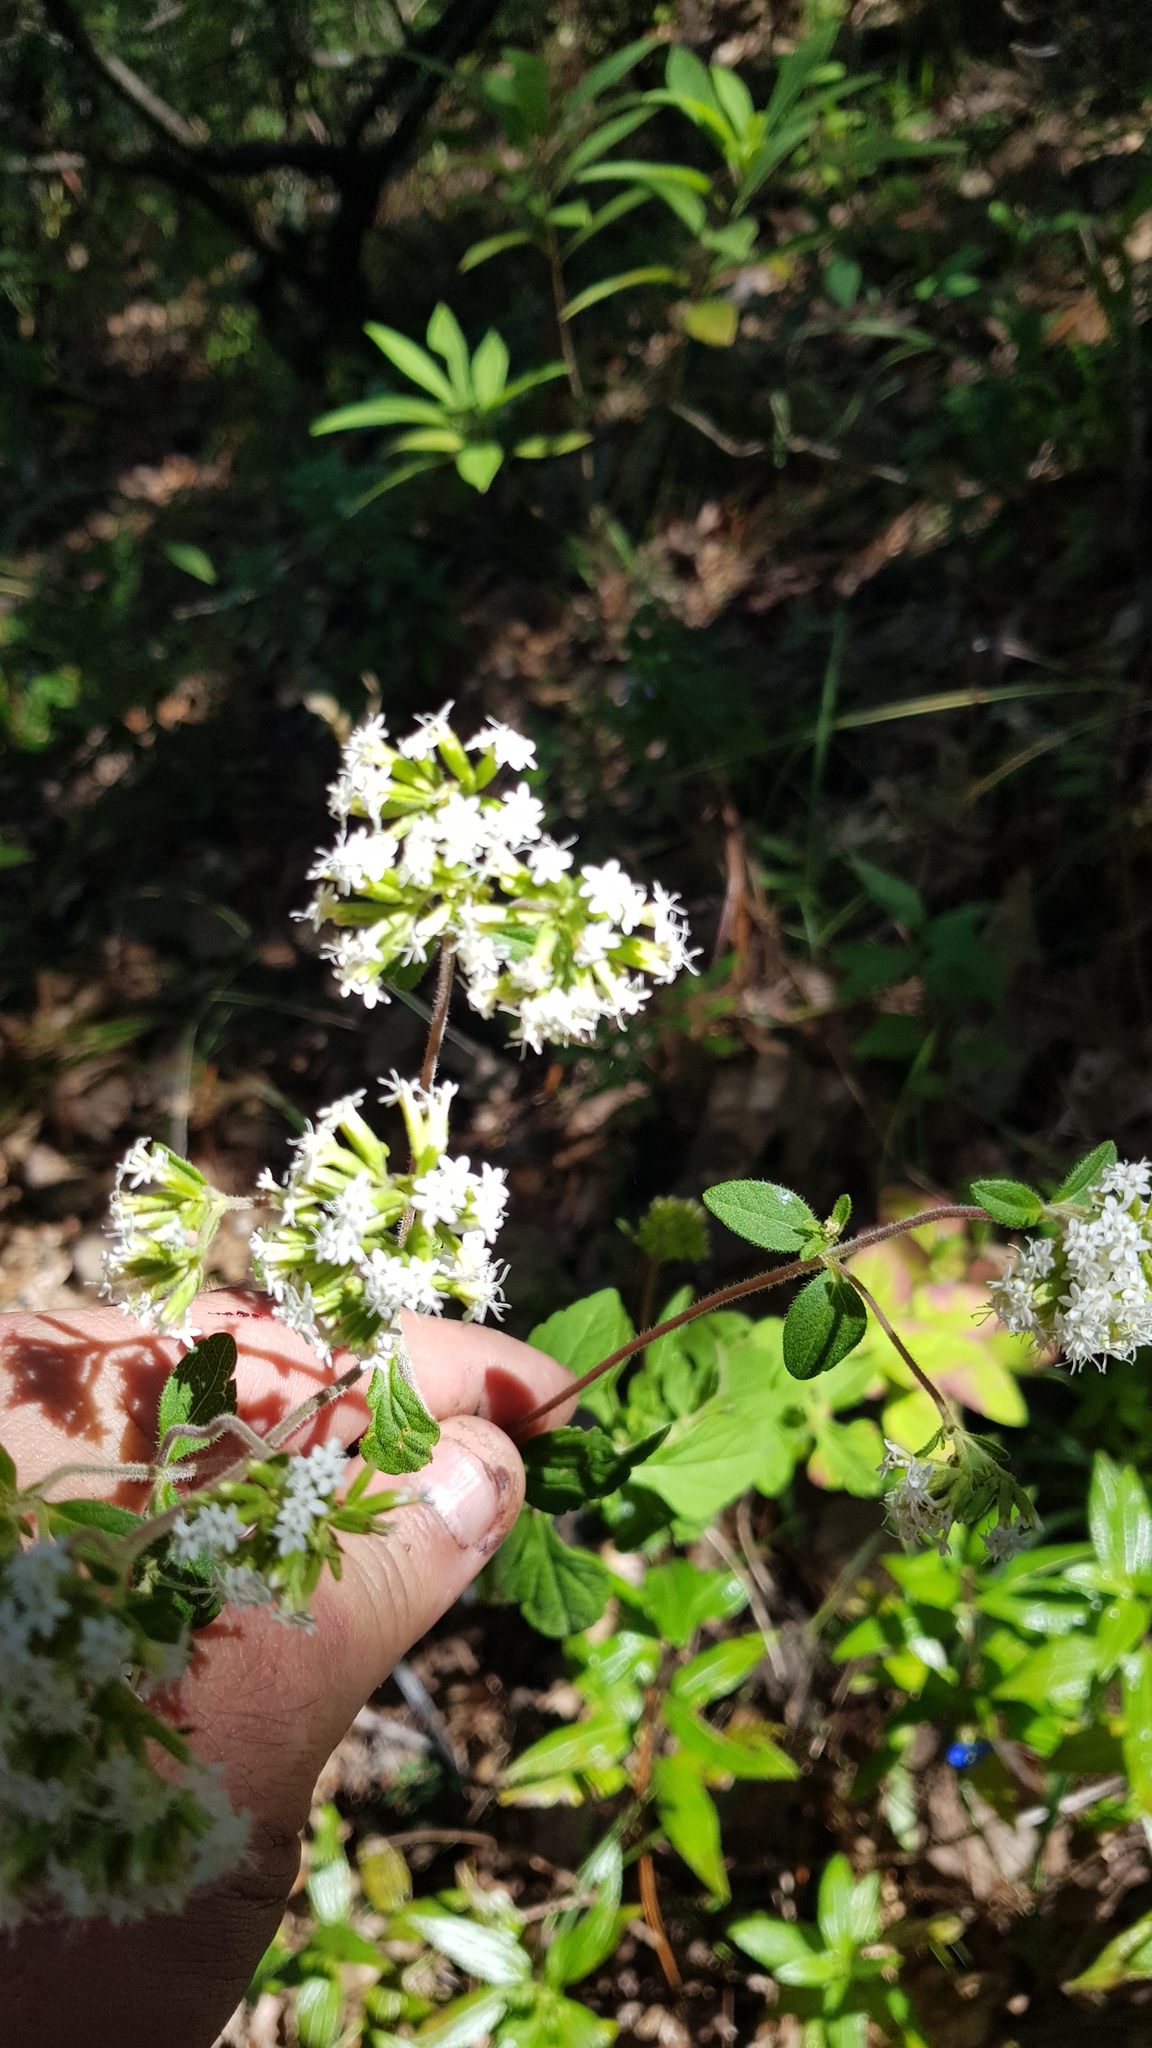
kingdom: Plantae
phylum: Tracheophyta
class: Magnoliopsida
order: Asterales
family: Asteraceae
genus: Stevia
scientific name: Stevia monardifolia
